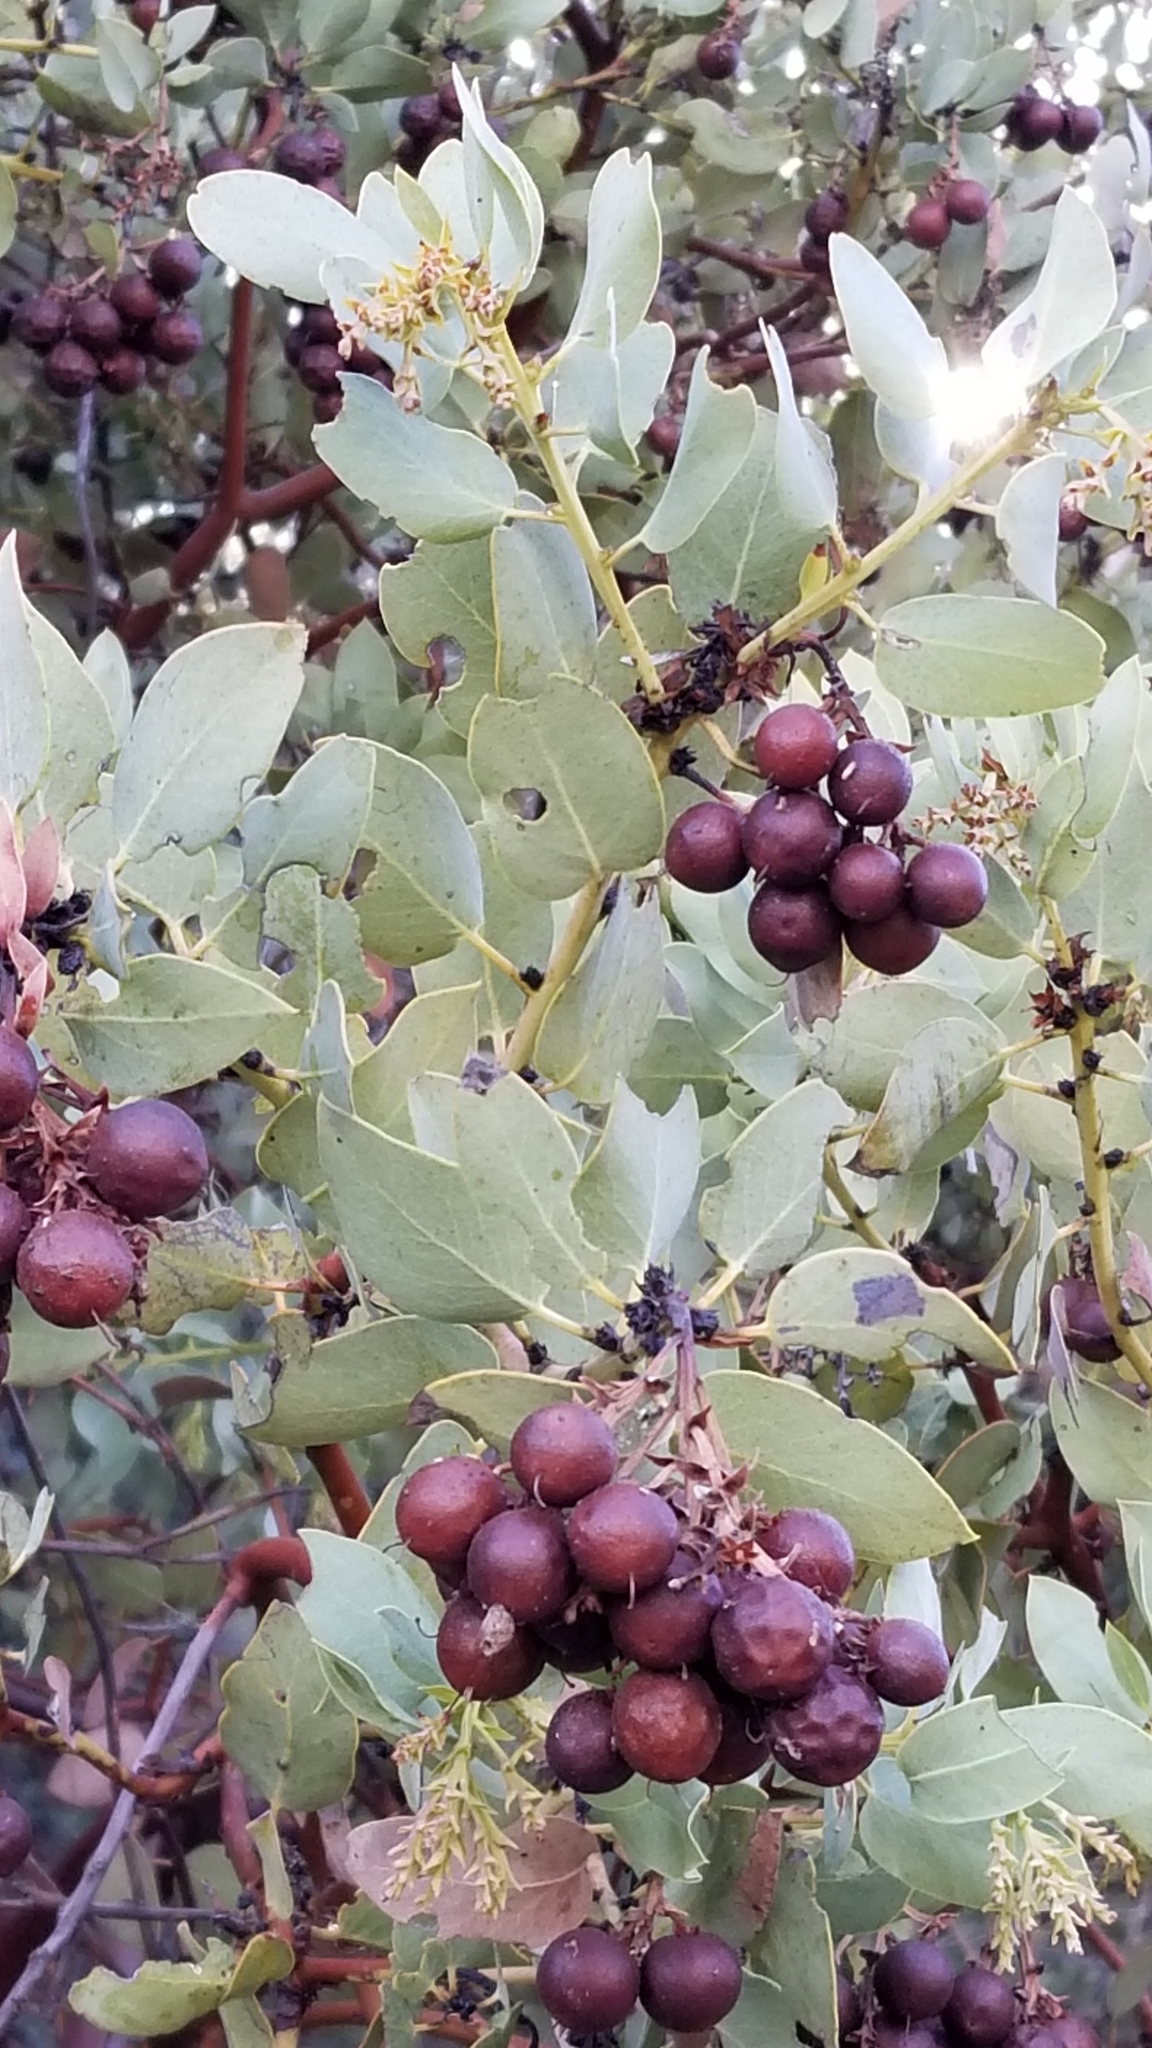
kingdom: Plantae
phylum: Tracheophyta
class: Magnoliopsida
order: Ericales
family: Ericaceae
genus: Arctostaphylos
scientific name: Arctostaphylos glauca
